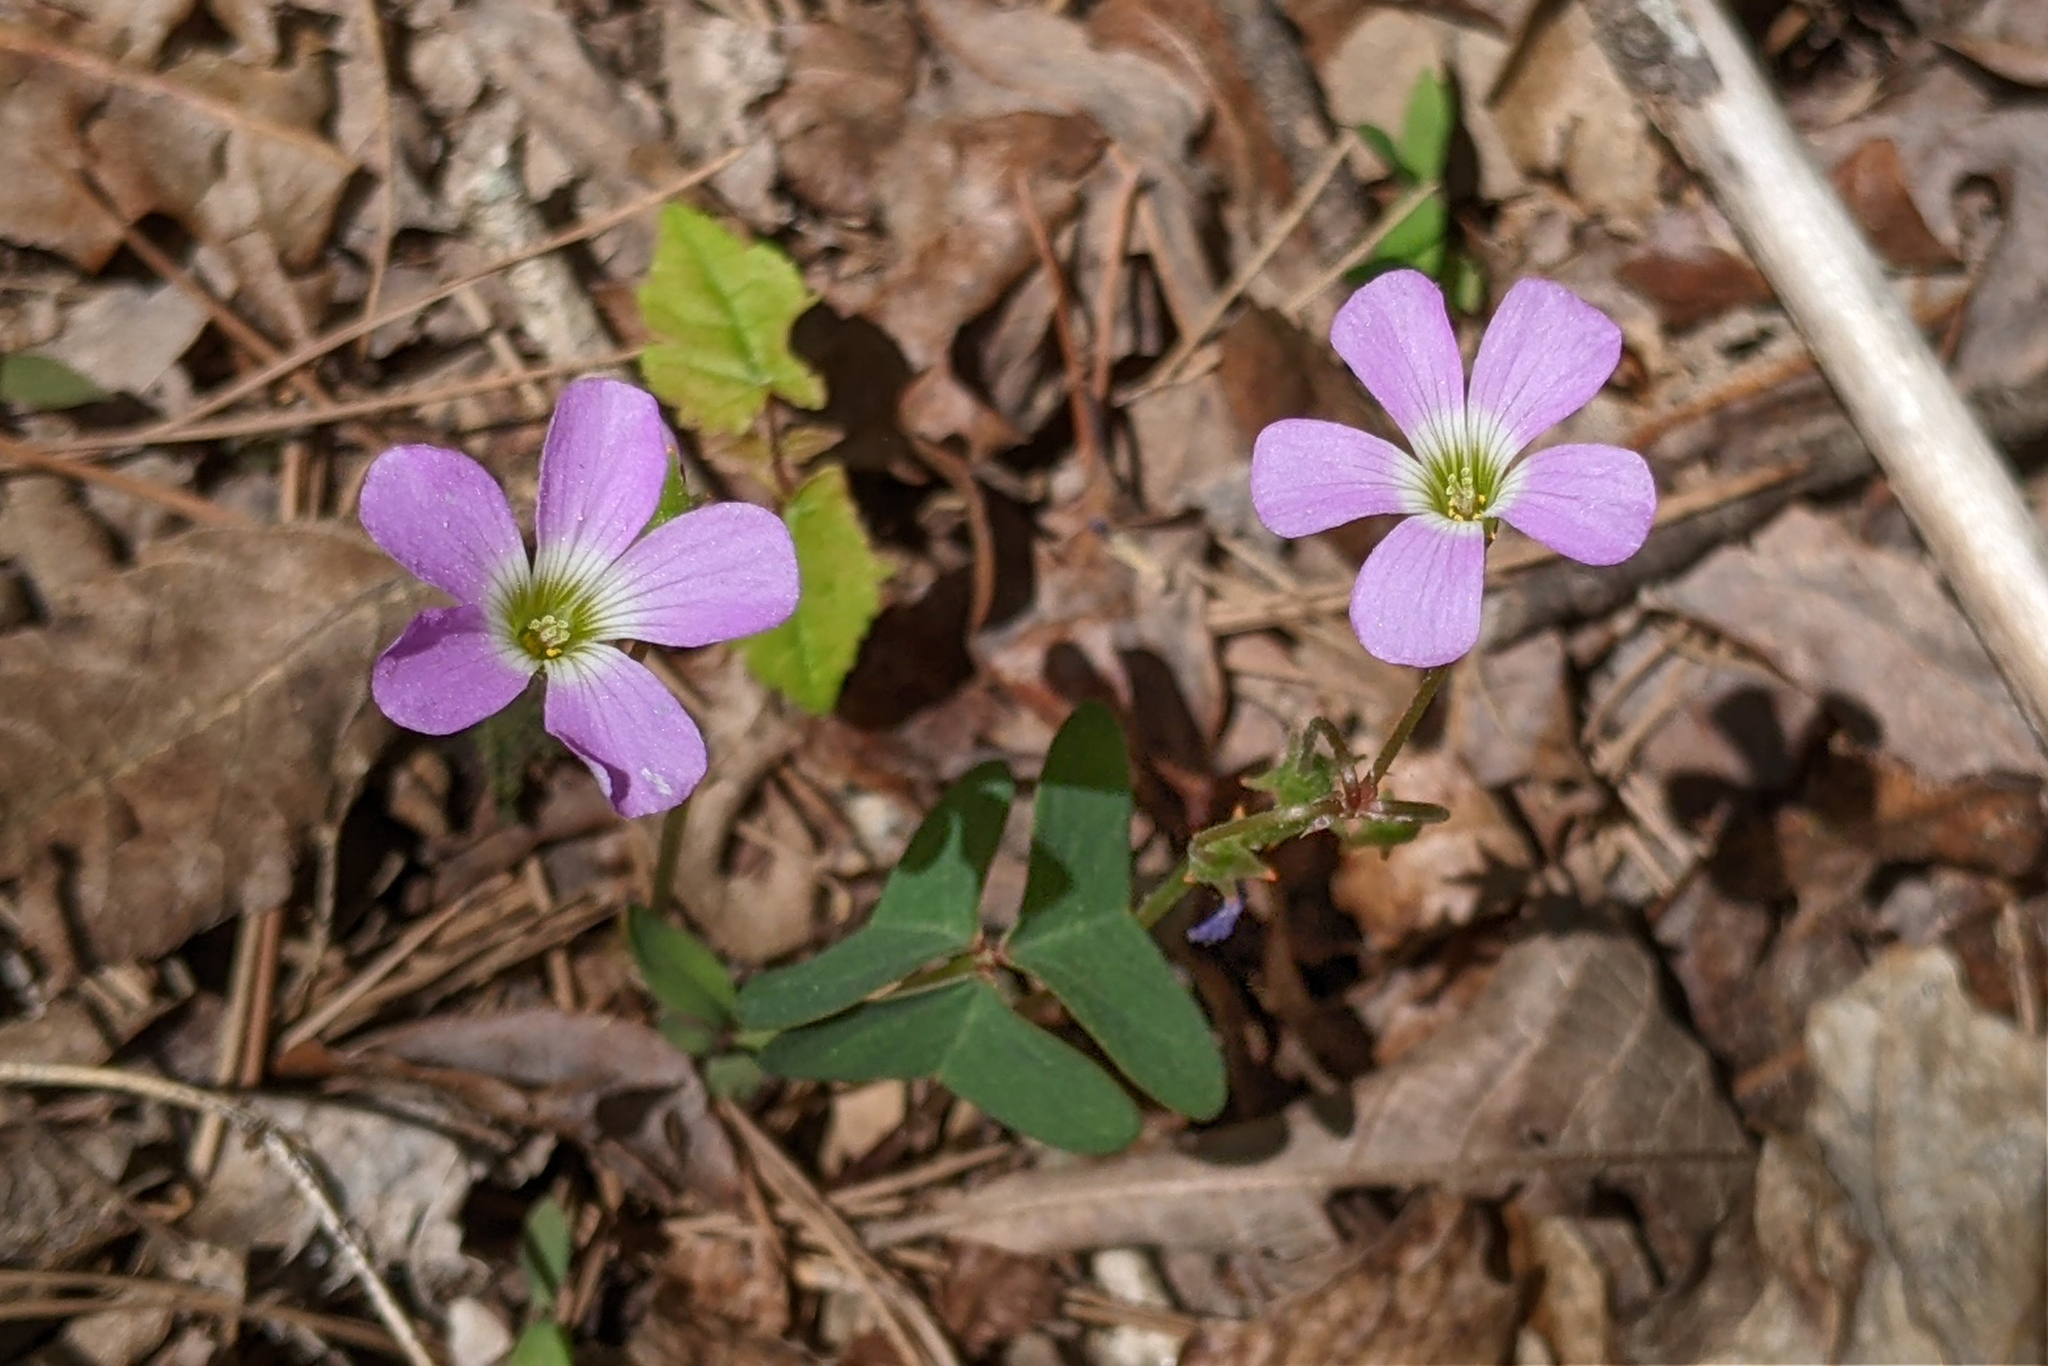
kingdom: Plantae
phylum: Tracheophyta
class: Magnoliopsida
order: Oxalidales
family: Oxalidaceae
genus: Oxalis
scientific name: Oxalis violacea
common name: Violet wood-sorrel
